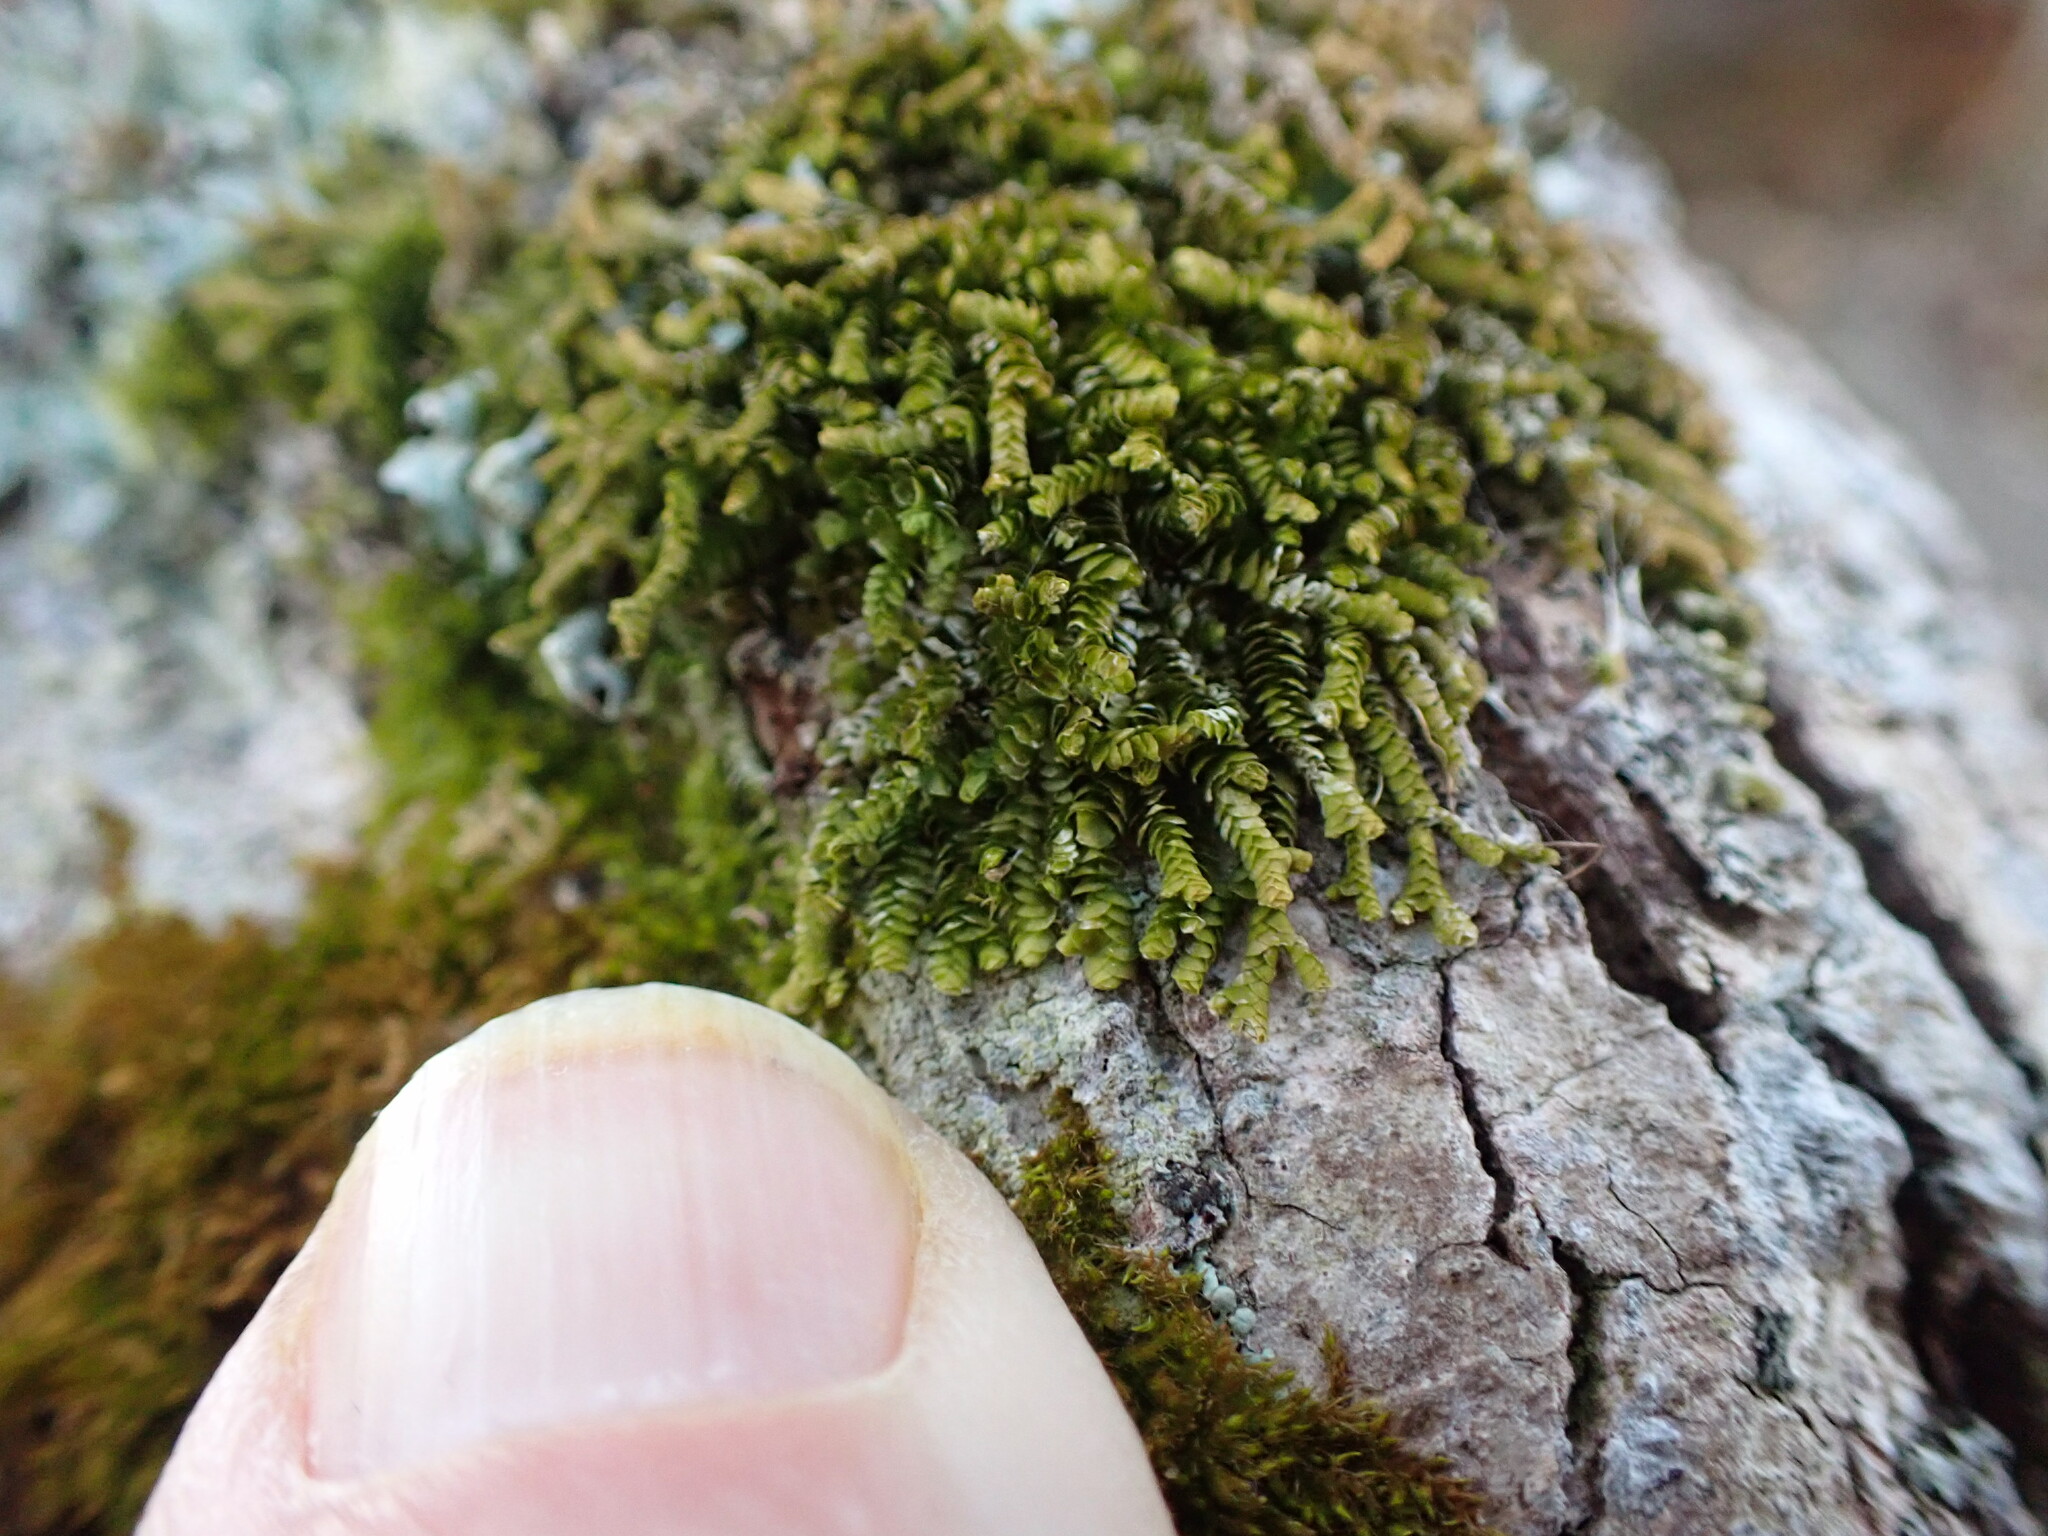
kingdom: Plantae
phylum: Marchantiophyta
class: Jungermanniopsida
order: Porellales
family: Lejeuneaceae
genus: Acrolejeunea
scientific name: Acrolejeunea sandvicensis
